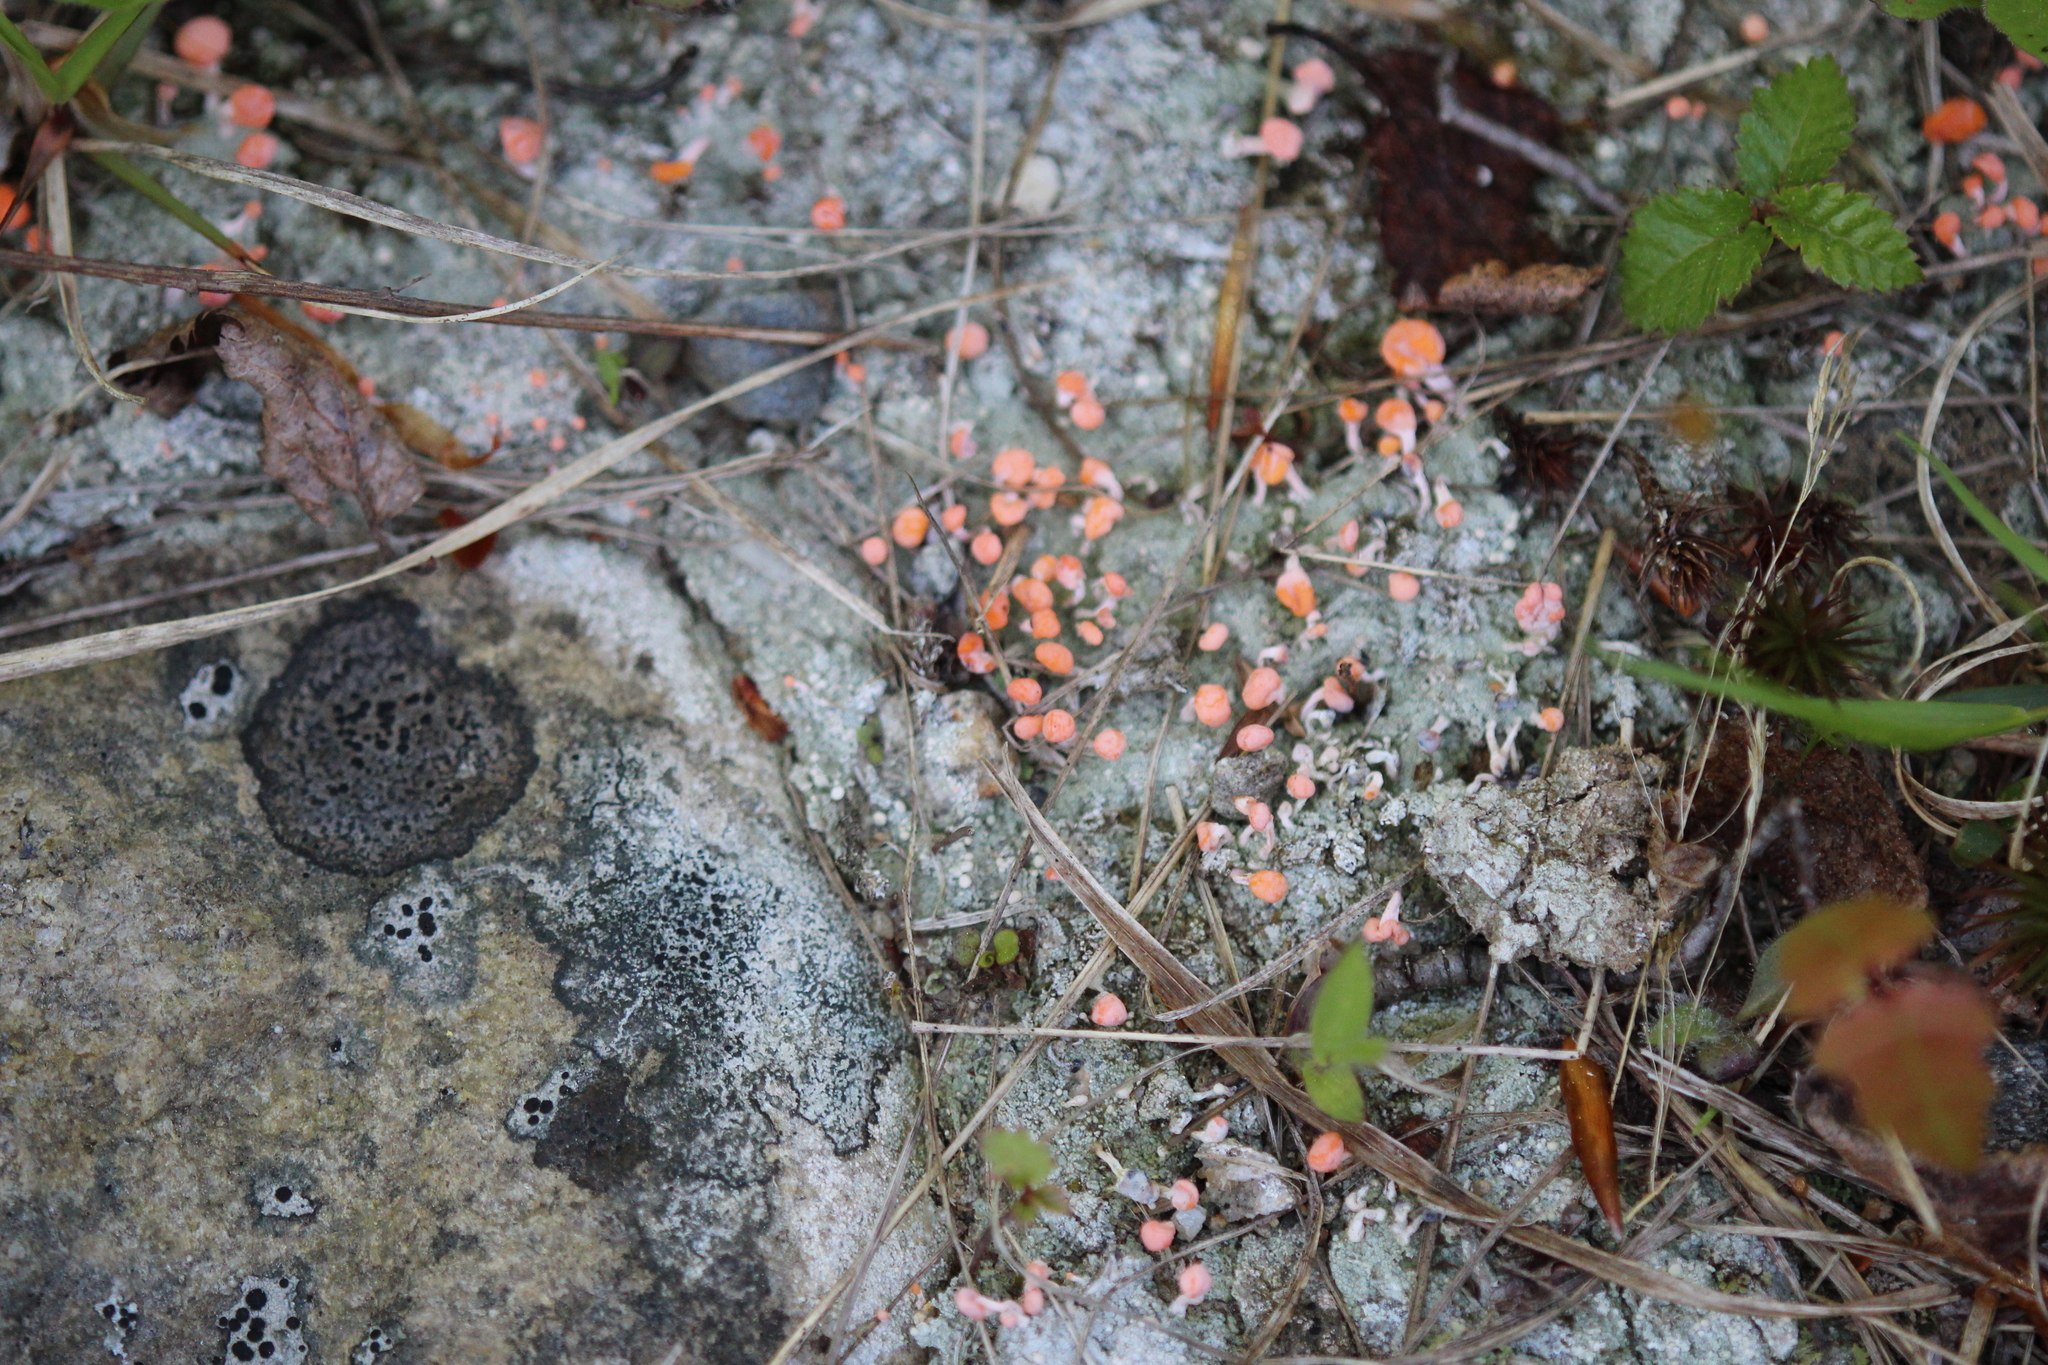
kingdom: Fungi
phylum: Ascomycota
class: Lecanoromycetes
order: Pertusariales
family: Icmadophilaceae
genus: Dibaeis
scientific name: Dibaeis baeomyces
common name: Pink earth lichen
